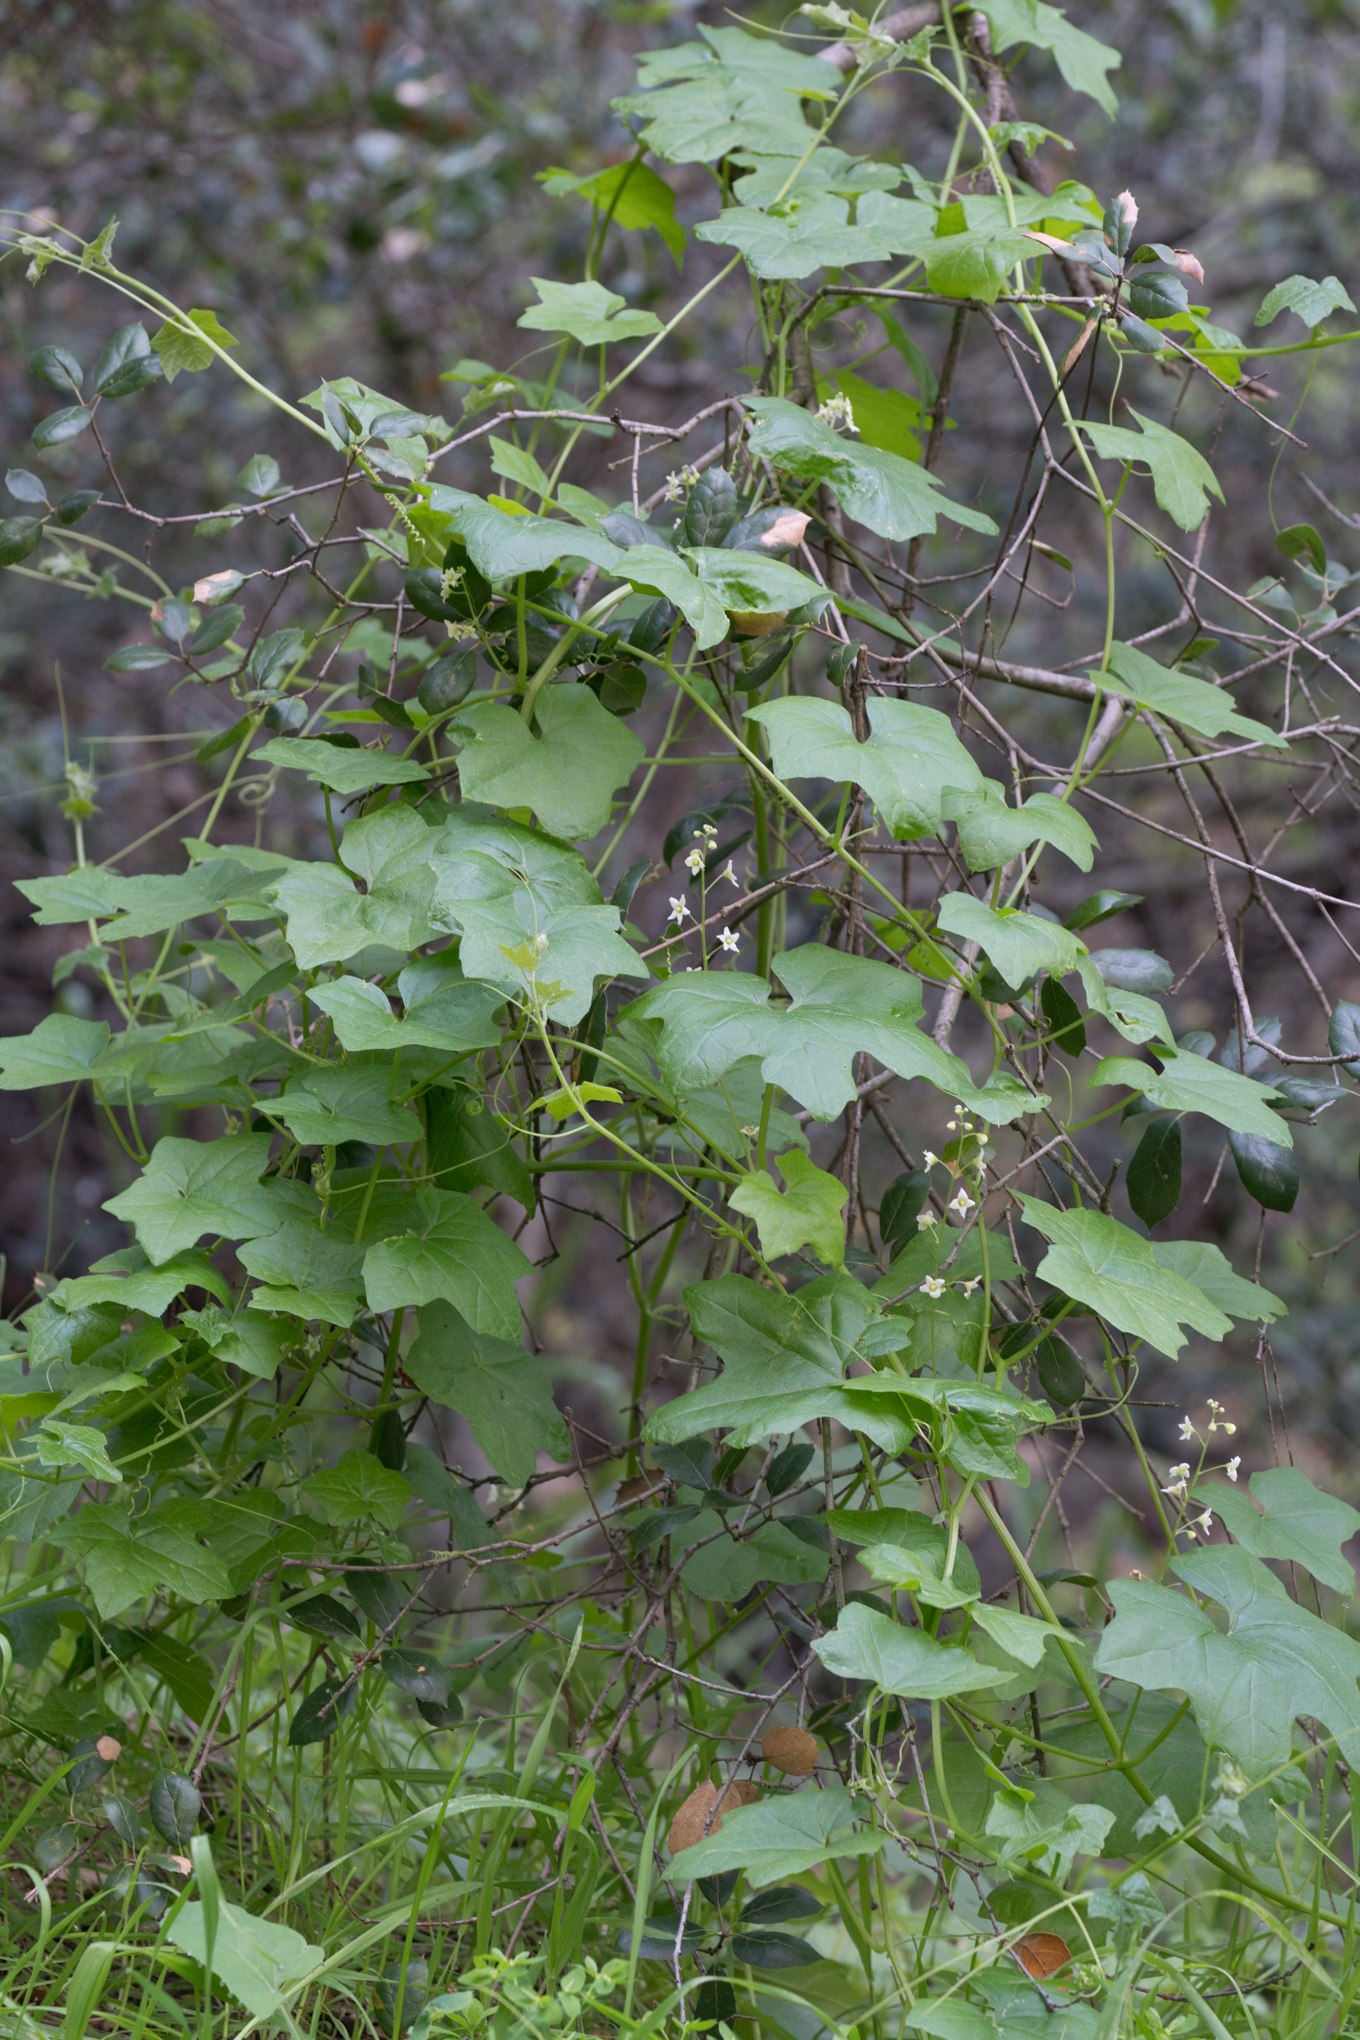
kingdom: Plantae
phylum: Tracheophyta
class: Magnoliopsida
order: Cucurbitales
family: Cucurbitaceae
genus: Marah
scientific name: Marah macrocarpa
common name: Cucamonga manroot
